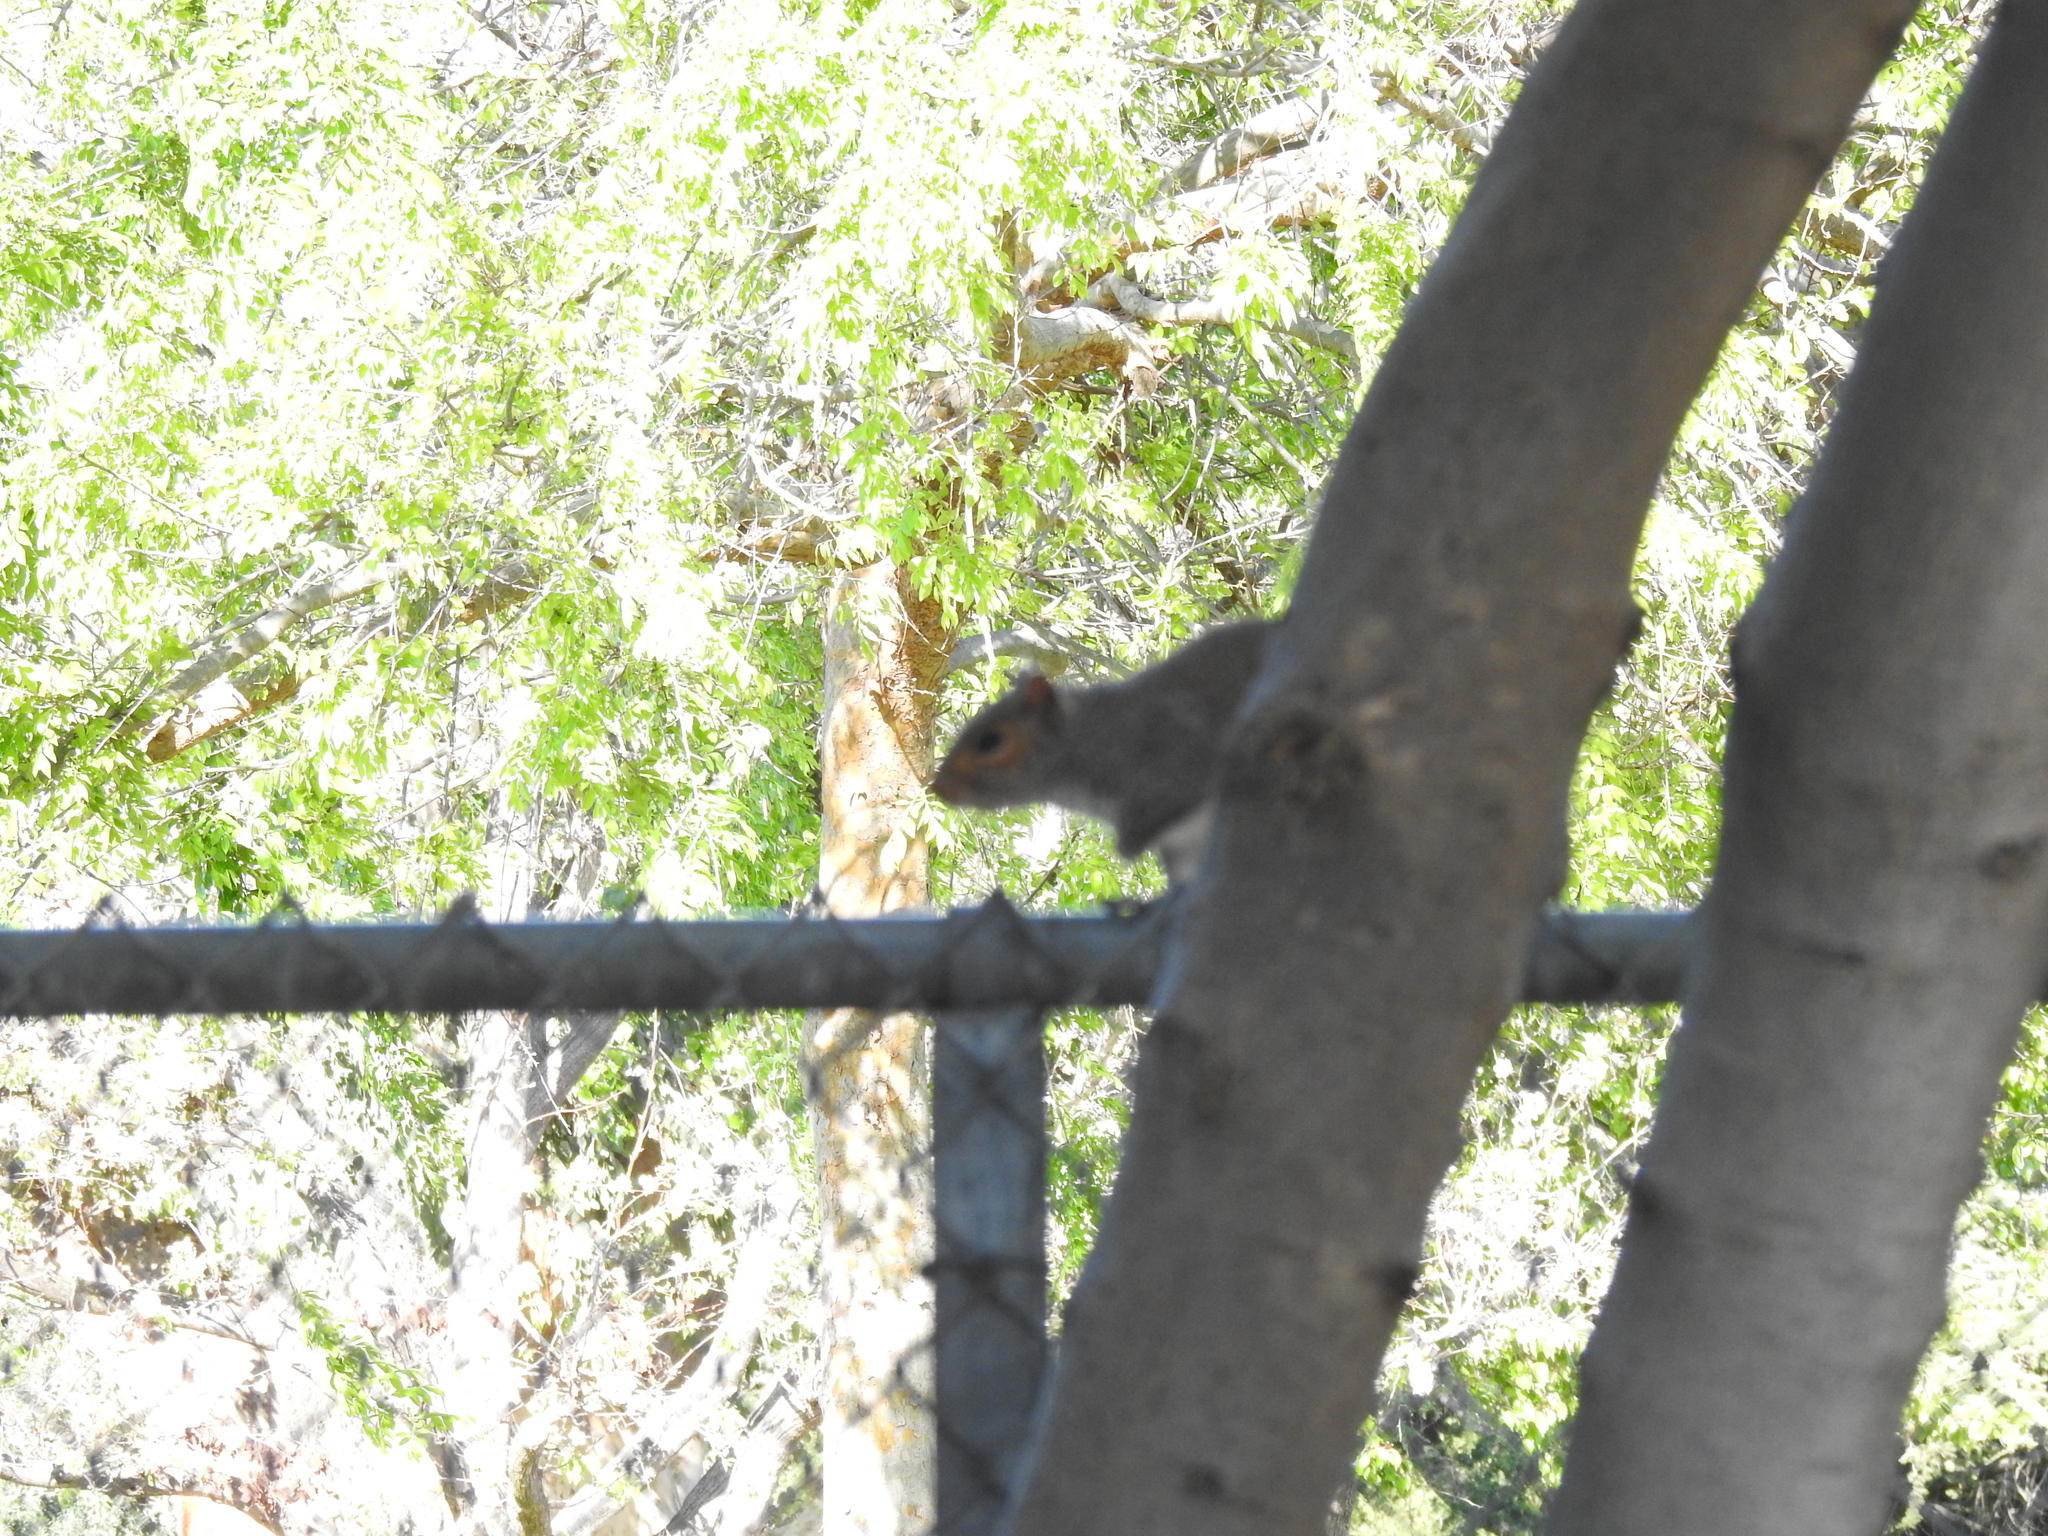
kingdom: Animalia
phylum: Chordata
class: Mammalia
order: Rodentia
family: Sciuridae
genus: Sciurus
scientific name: Sciurus carolinensis
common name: Eastern gray squirrel
